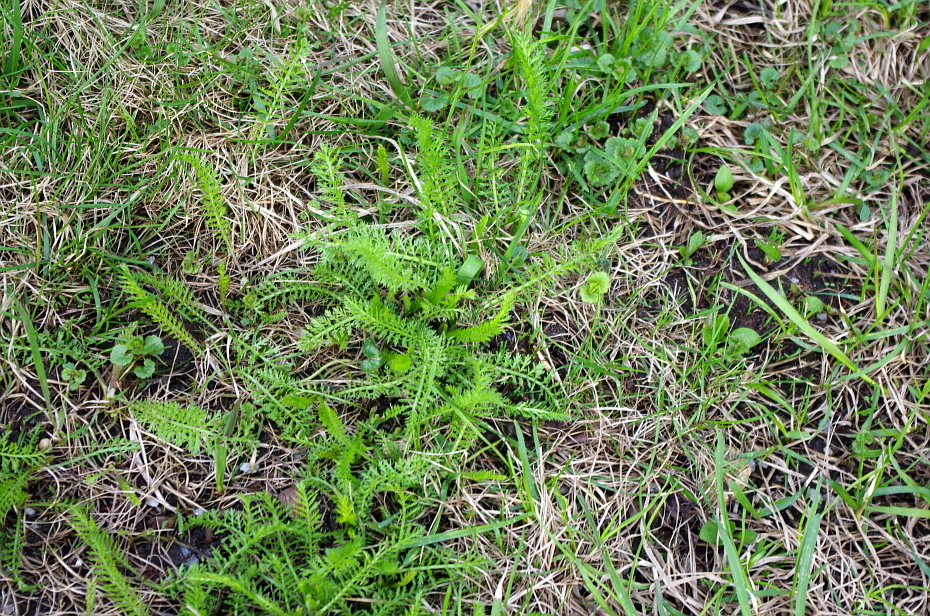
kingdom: Plantae
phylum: Tracheophyta
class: Magnoliopsida
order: Asterales
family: Asteraceae
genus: Achillea
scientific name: Achillea millefolium
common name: Yarrow
